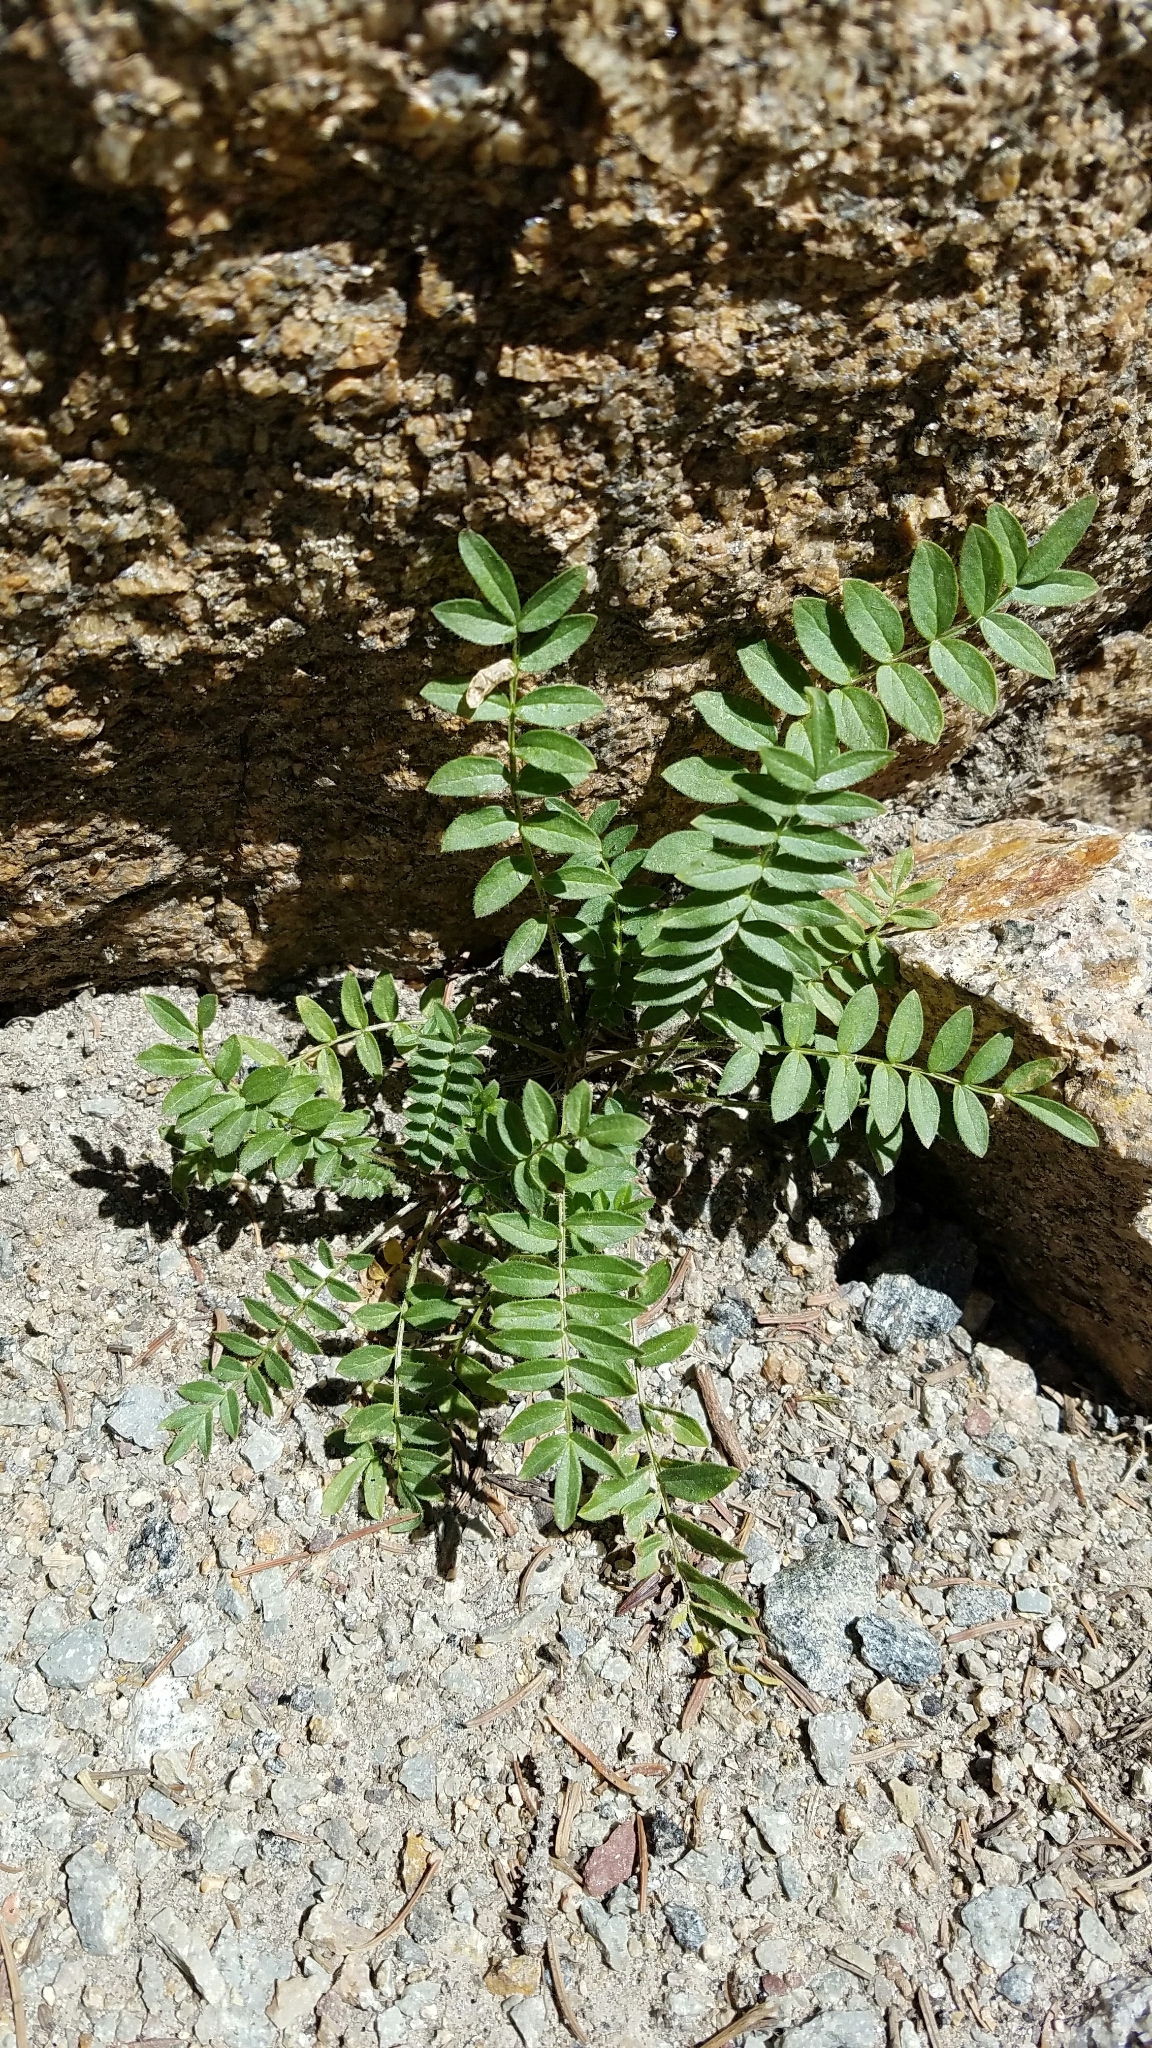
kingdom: Plantae
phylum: Tracheophyta
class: Magnoliopsida
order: Ericales
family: Polemoniaceae
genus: Polemonium
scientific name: Polemonium pulcherrimum
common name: Short jacob's-ladder
